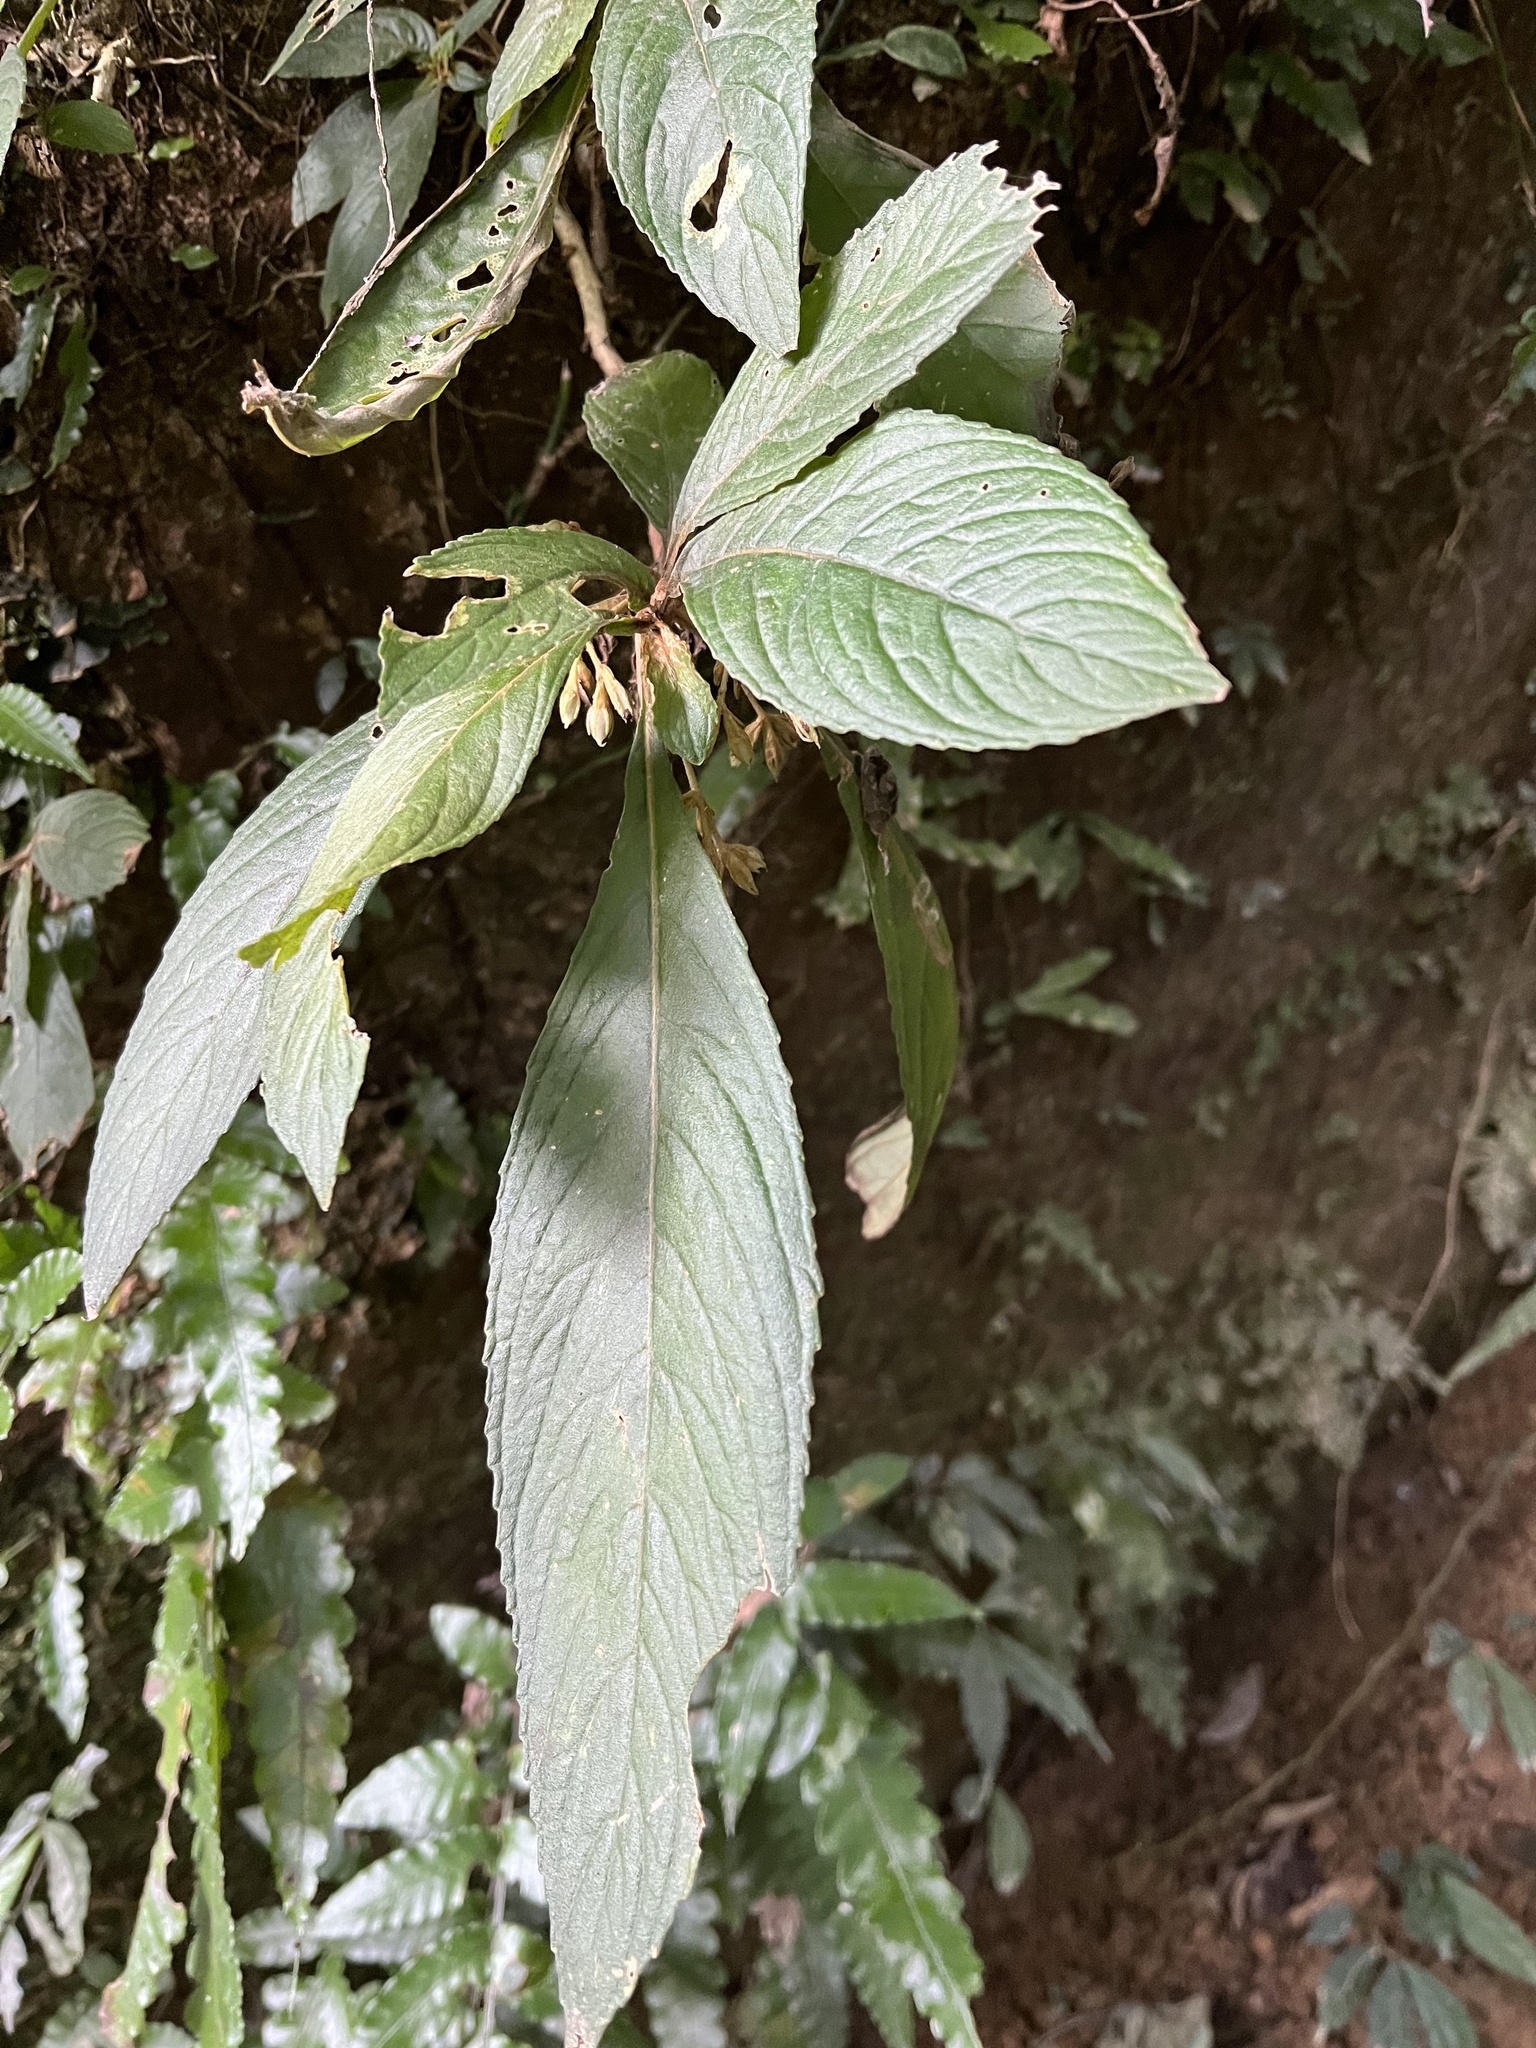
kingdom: Plantae
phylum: Tracheophyta
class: Magnoliopsida
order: Lamiales
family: Gesneriaceae
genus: Rhynchotechum
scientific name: Rhynchotechum discolor
